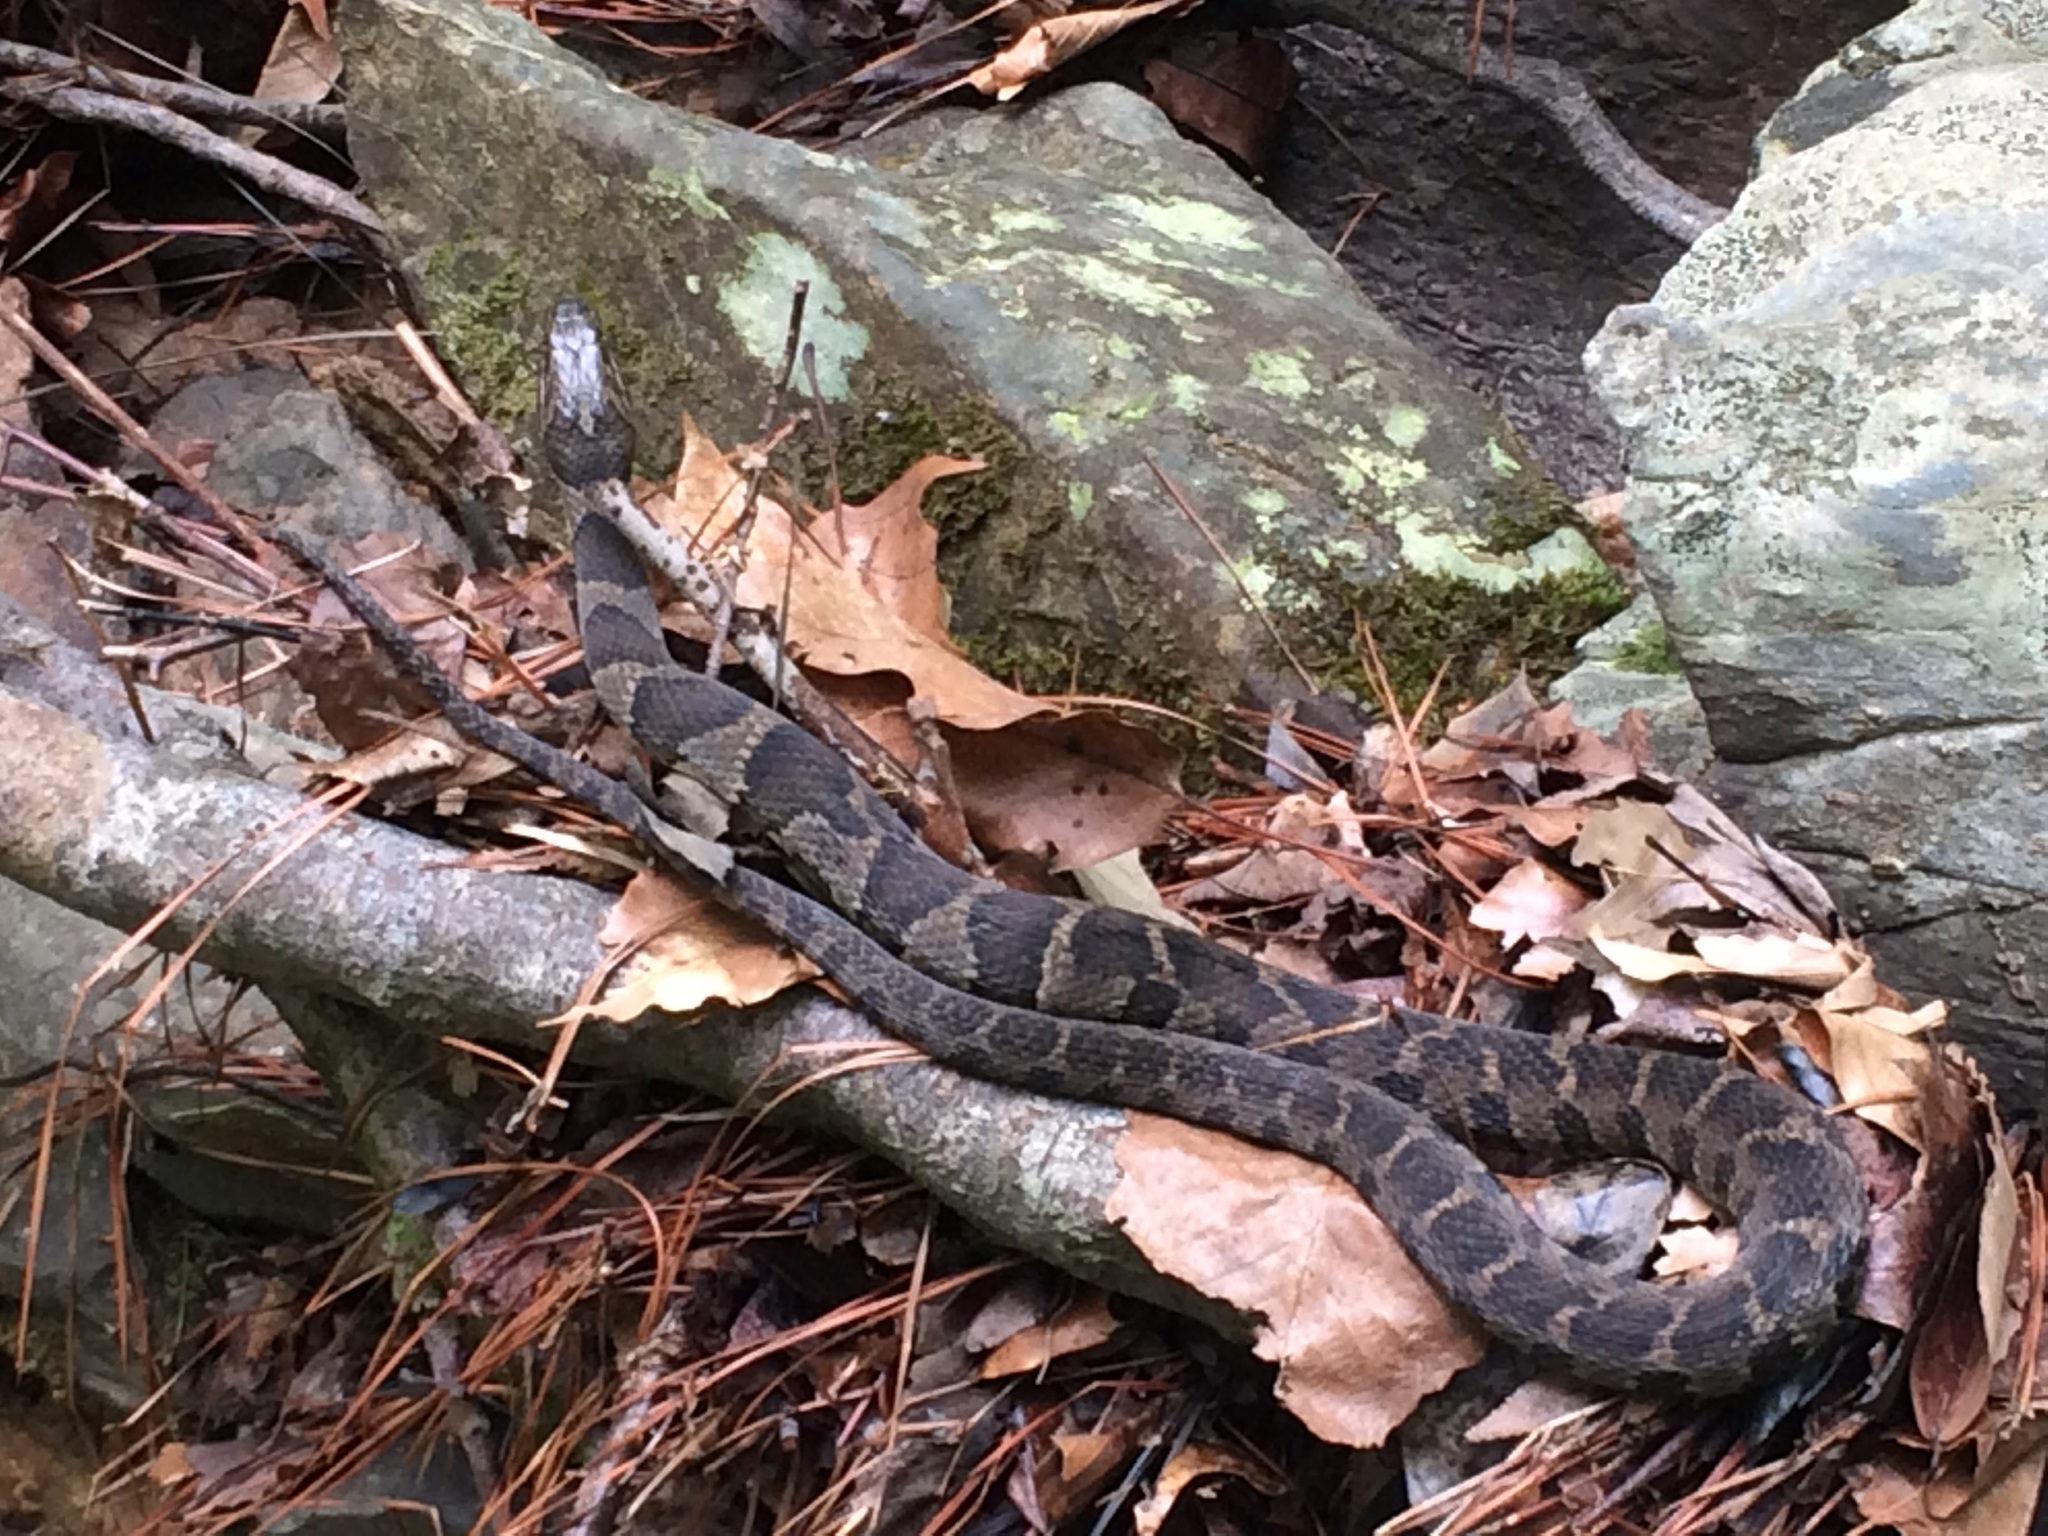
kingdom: Animalia
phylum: Chordata
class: Squamata
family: Colubridae
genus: Nerodia
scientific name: Nerodia sipedon
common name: Northern water snake
